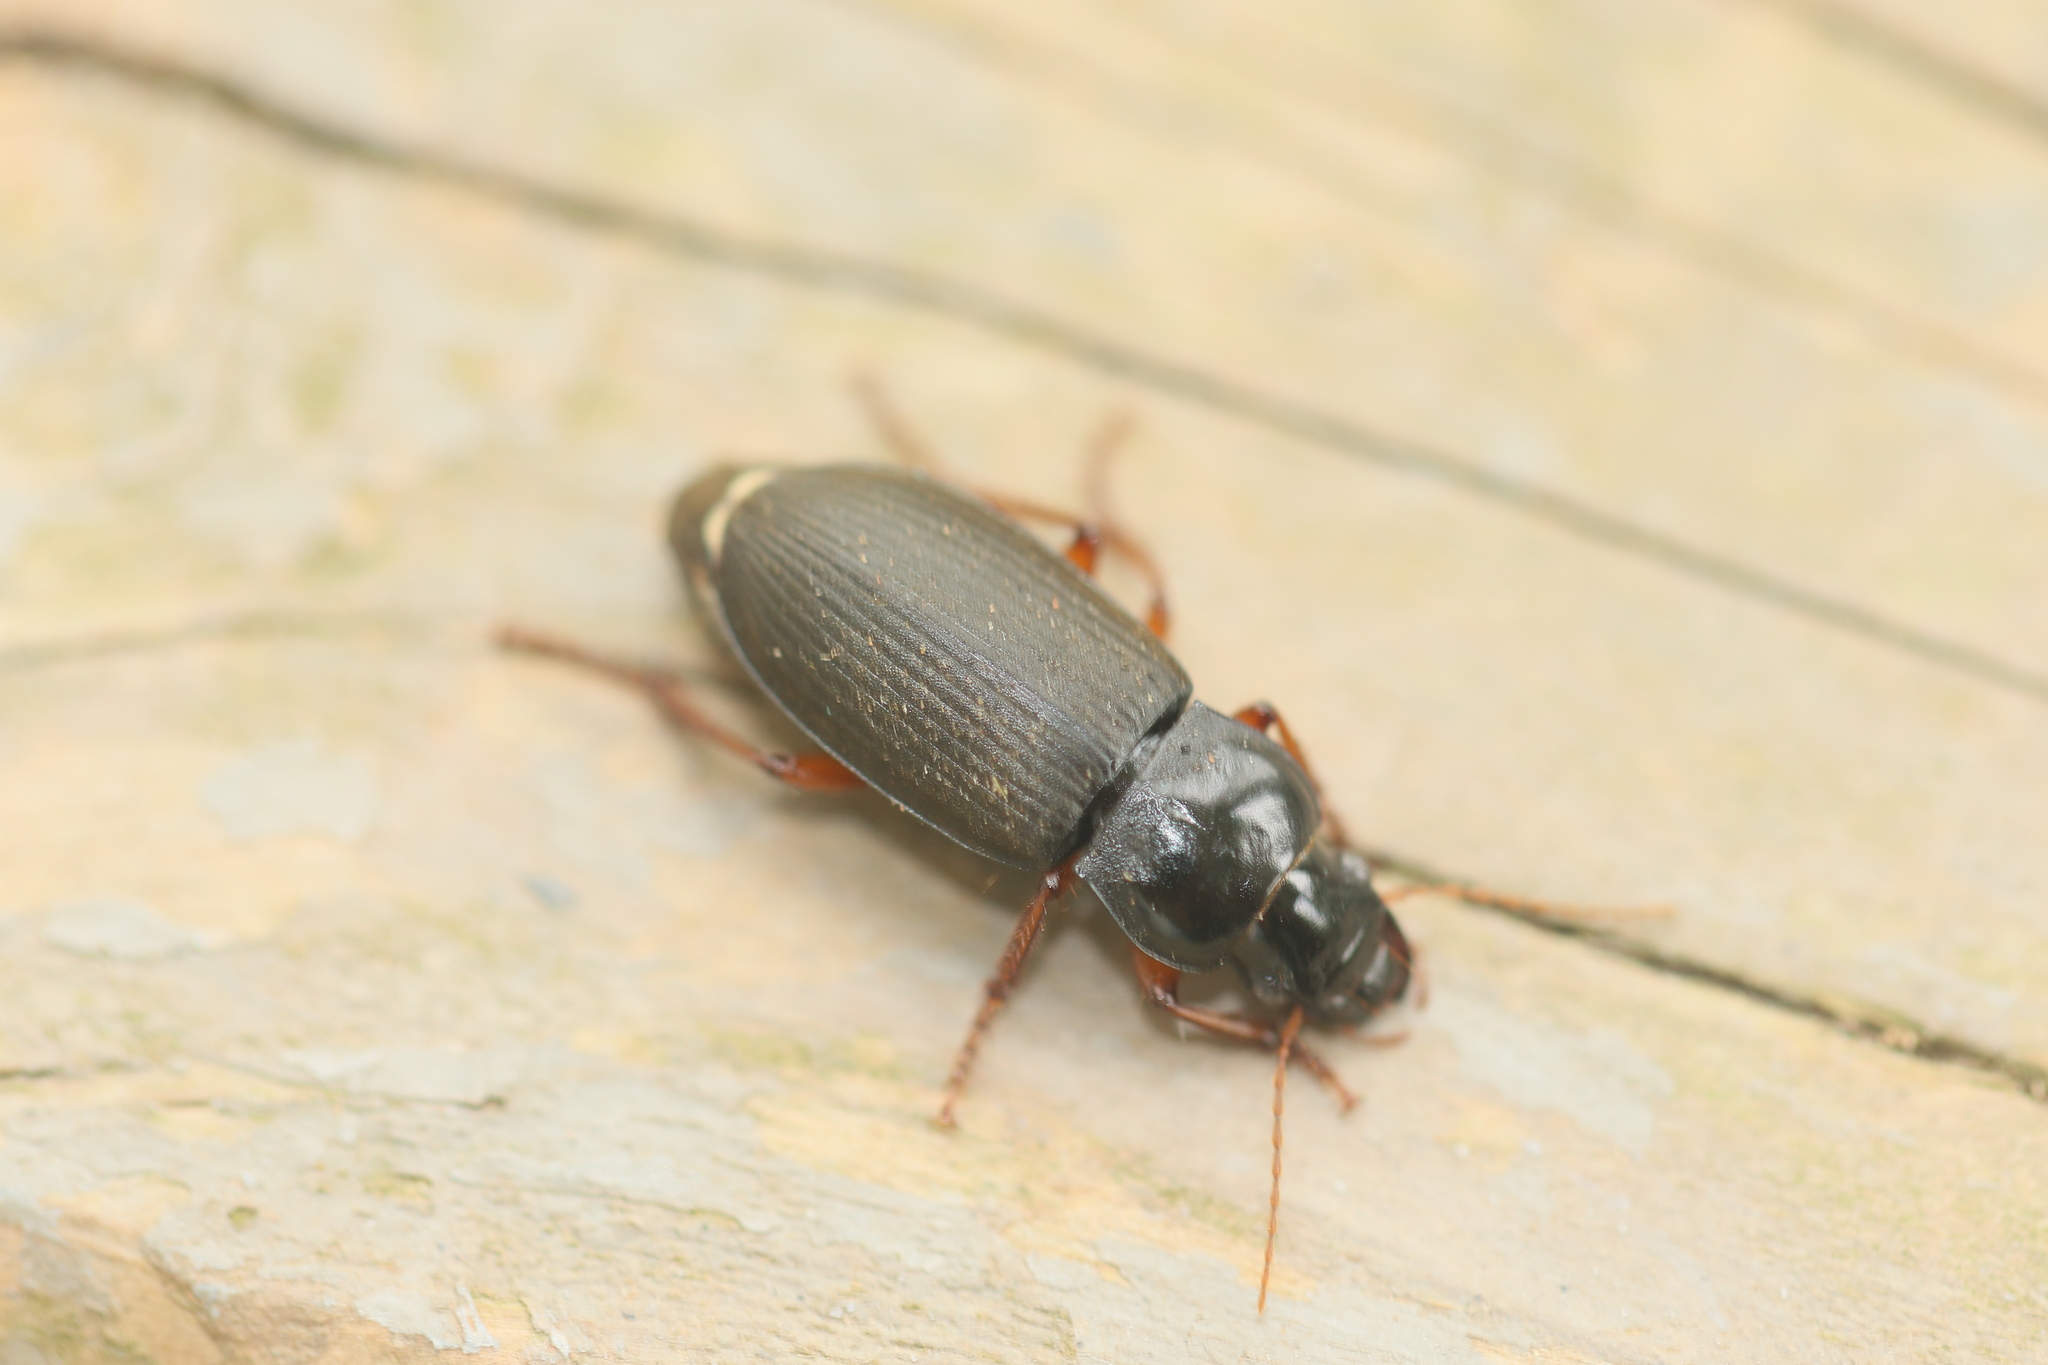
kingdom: Animalia
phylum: Arthropoda
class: Insecta
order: Coleoptera
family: Carabidae
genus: Harpalus
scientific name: Harpalus rufipes
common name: Strawberry harp ground beetle
